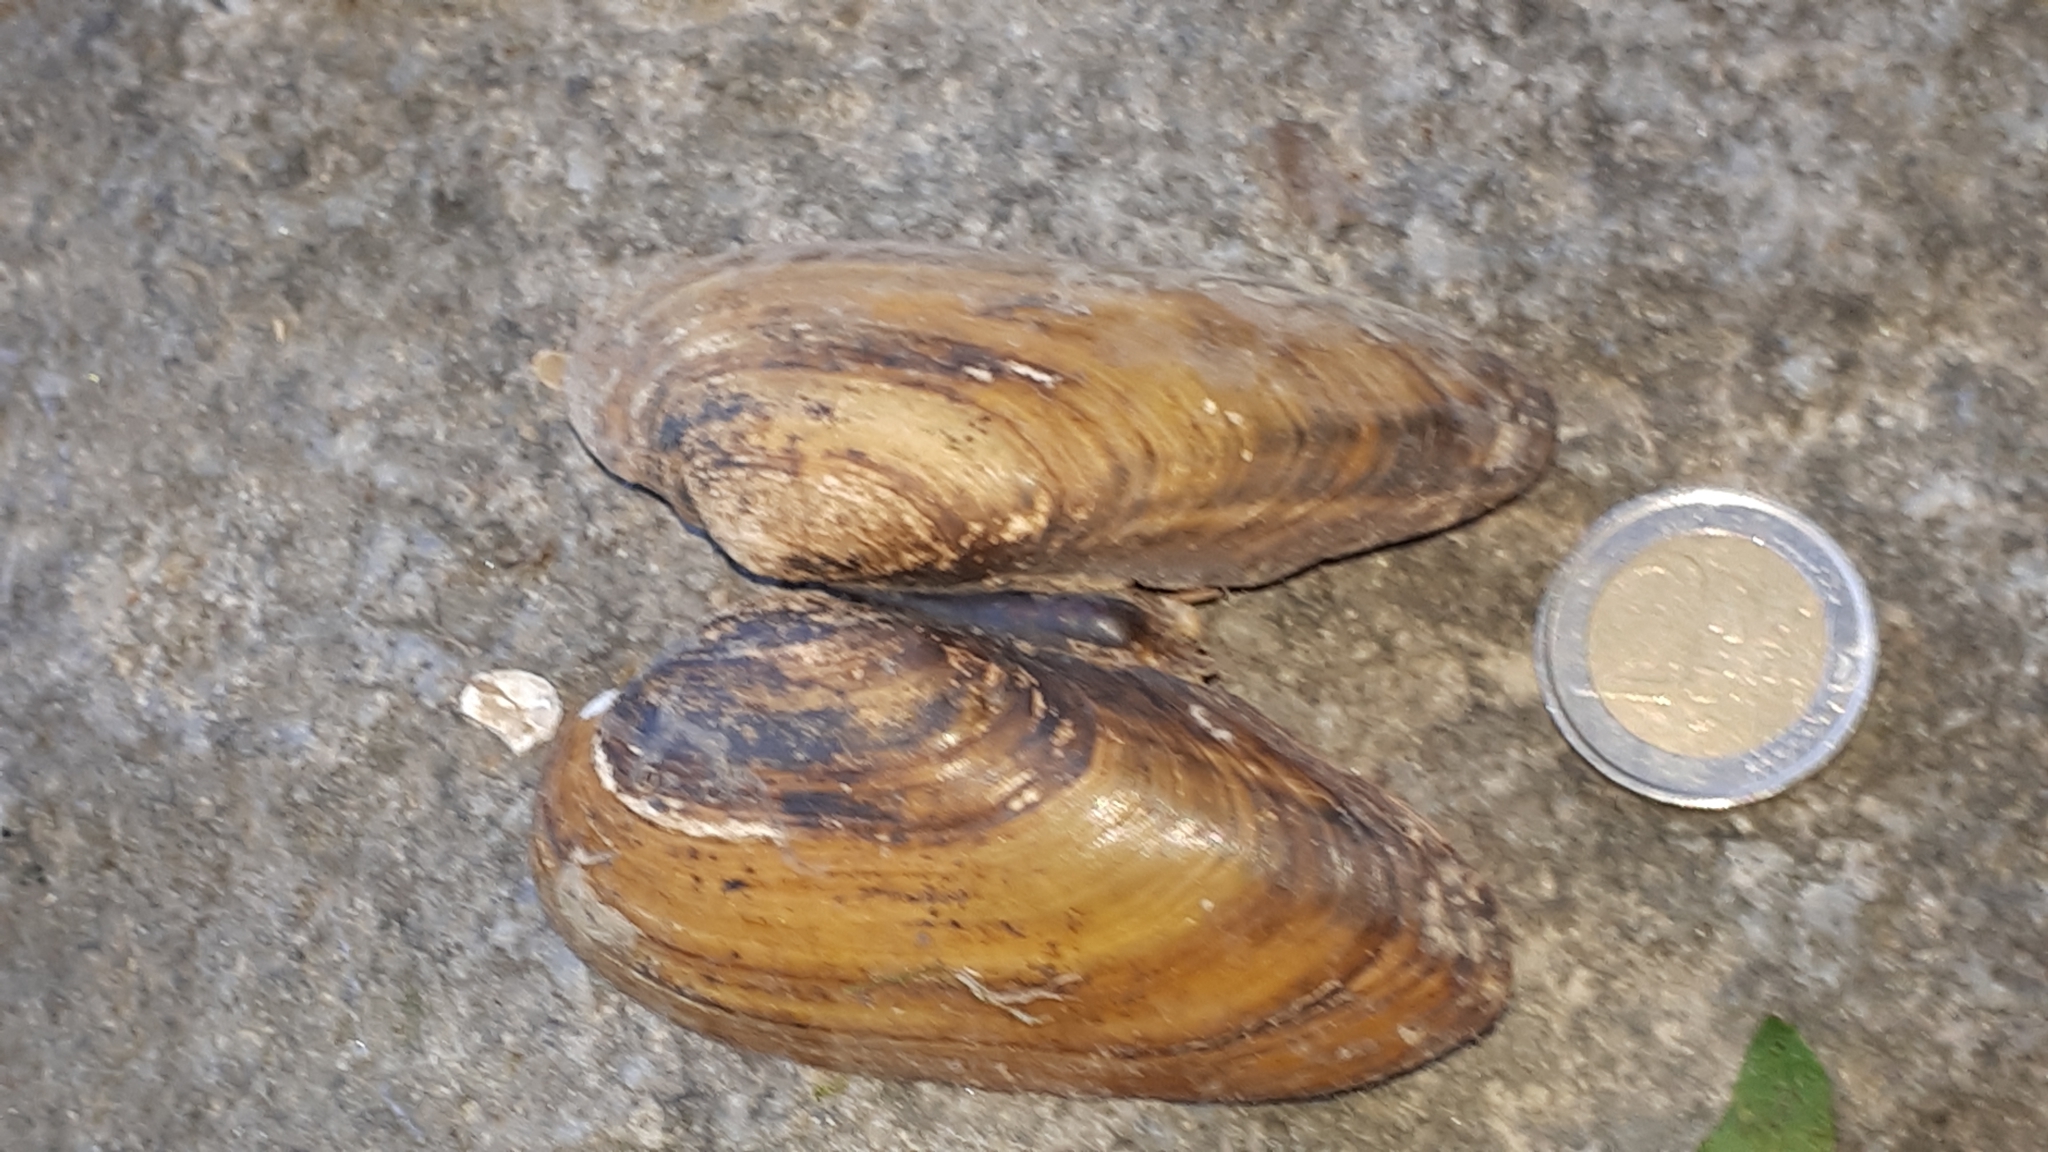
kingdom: Animalia
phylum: Mollusca
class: Bivalvia
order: Unionida
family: Unionidae
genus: Unio
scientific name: Unio pictorum
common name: Painter's mussel
